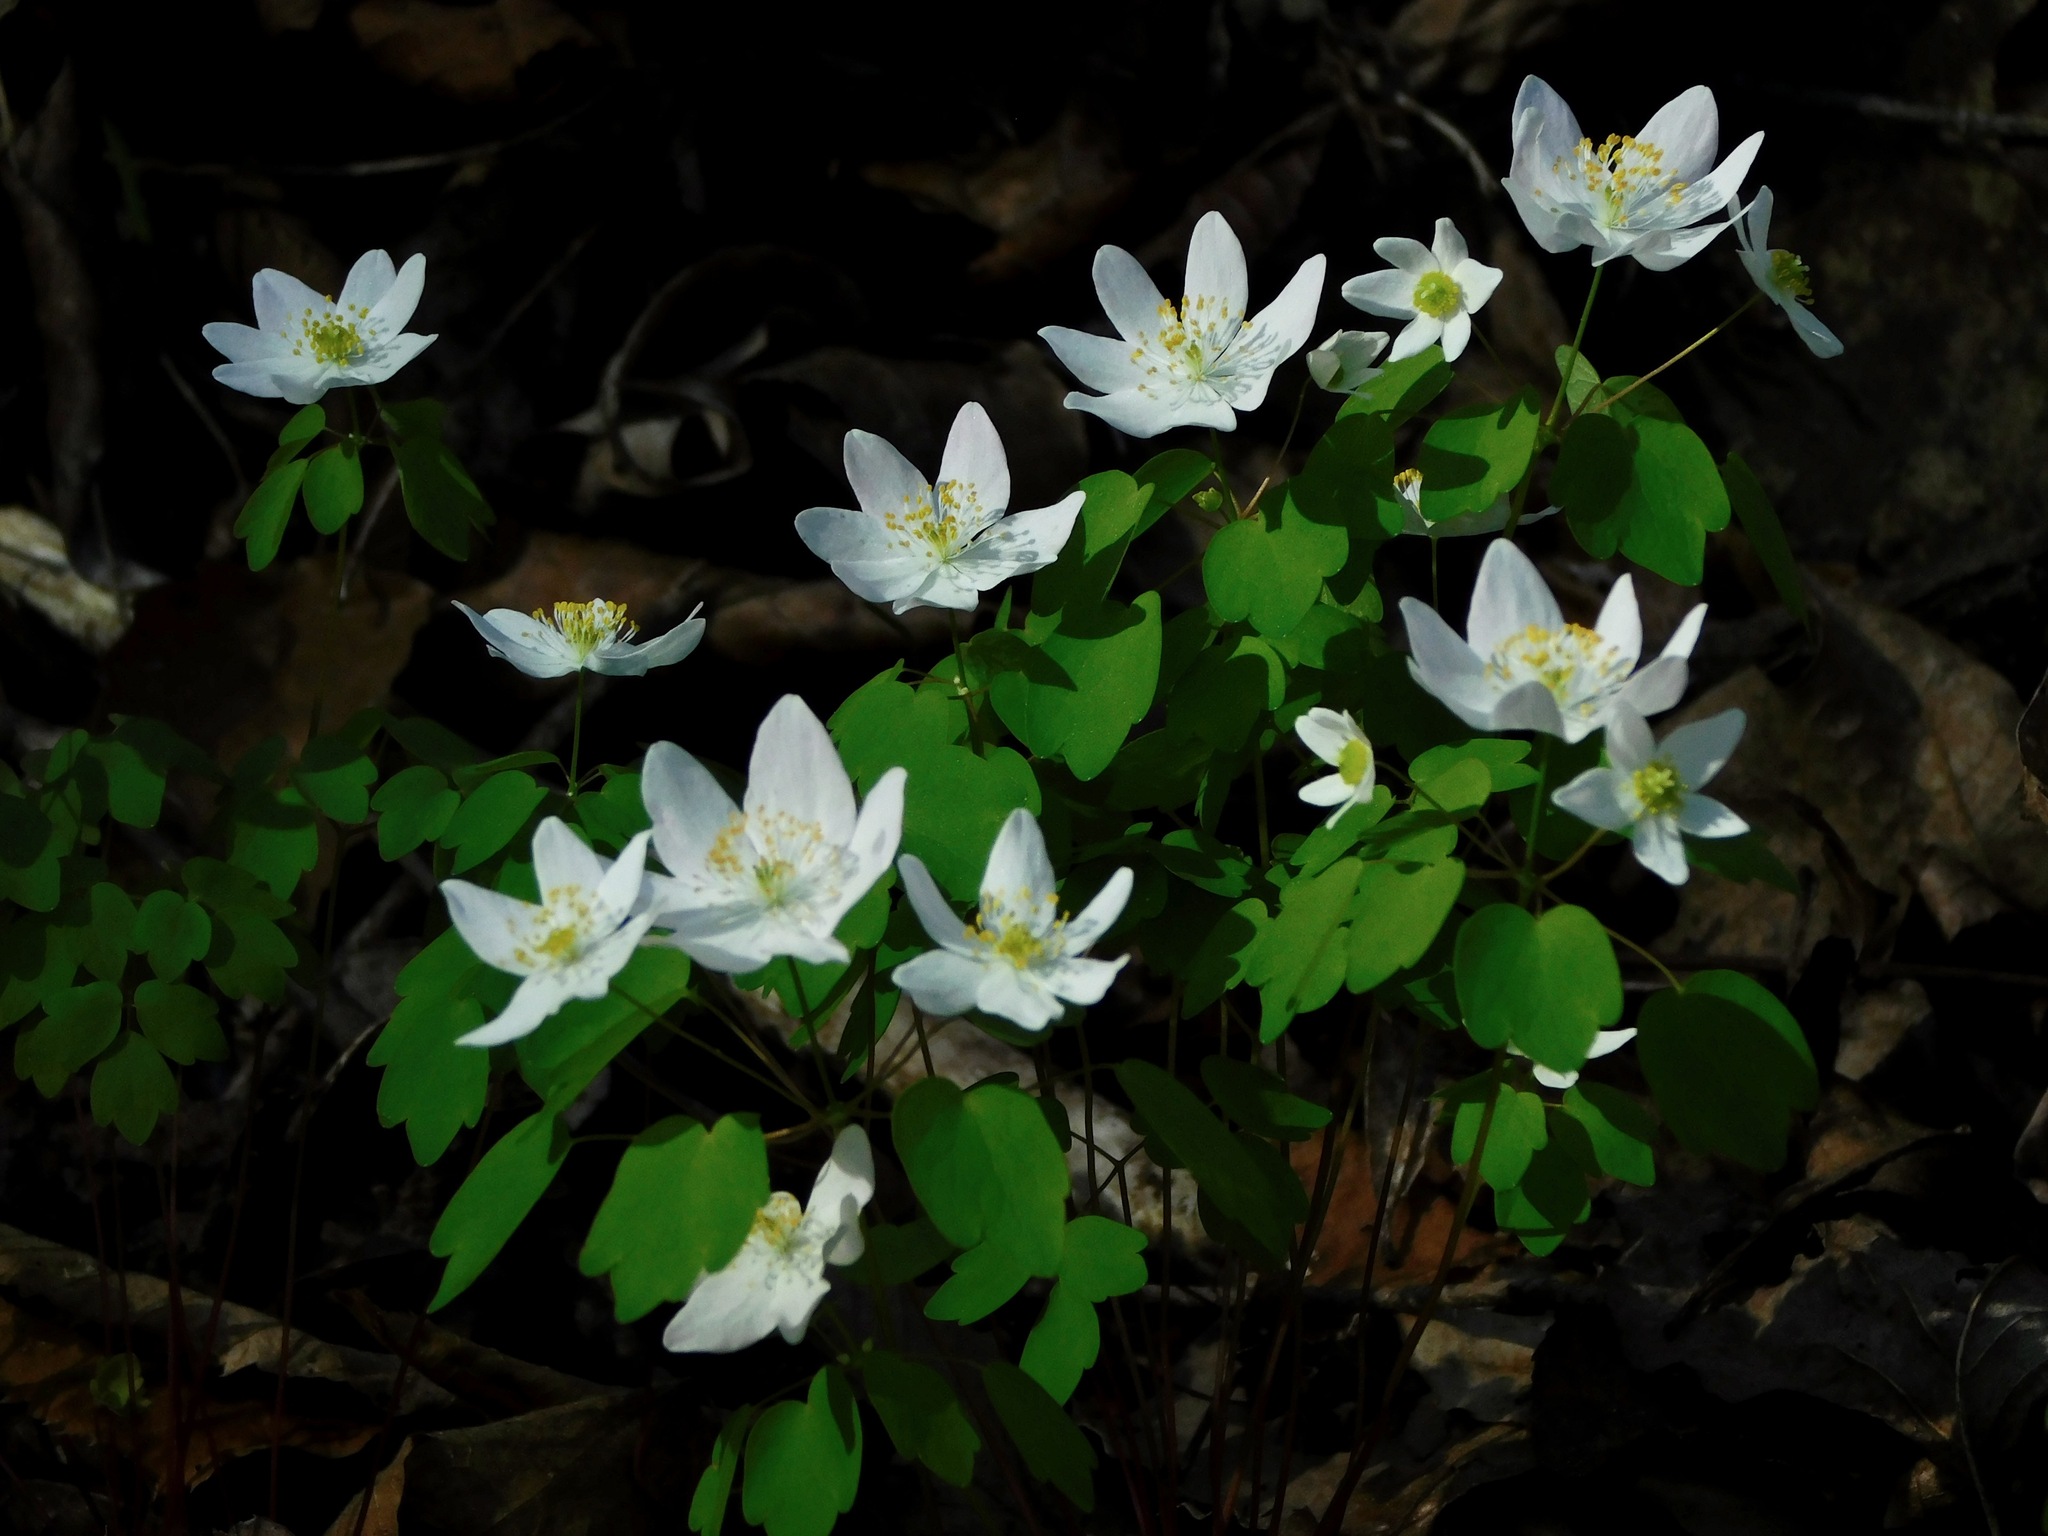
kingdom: Plantae
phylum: Tracheophyta
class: Magnoliopsida
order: Ranunculales
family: Ranunculaceae
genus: Thalictrum
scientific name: Thalictrum thalictroides
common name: Rue-anemone
